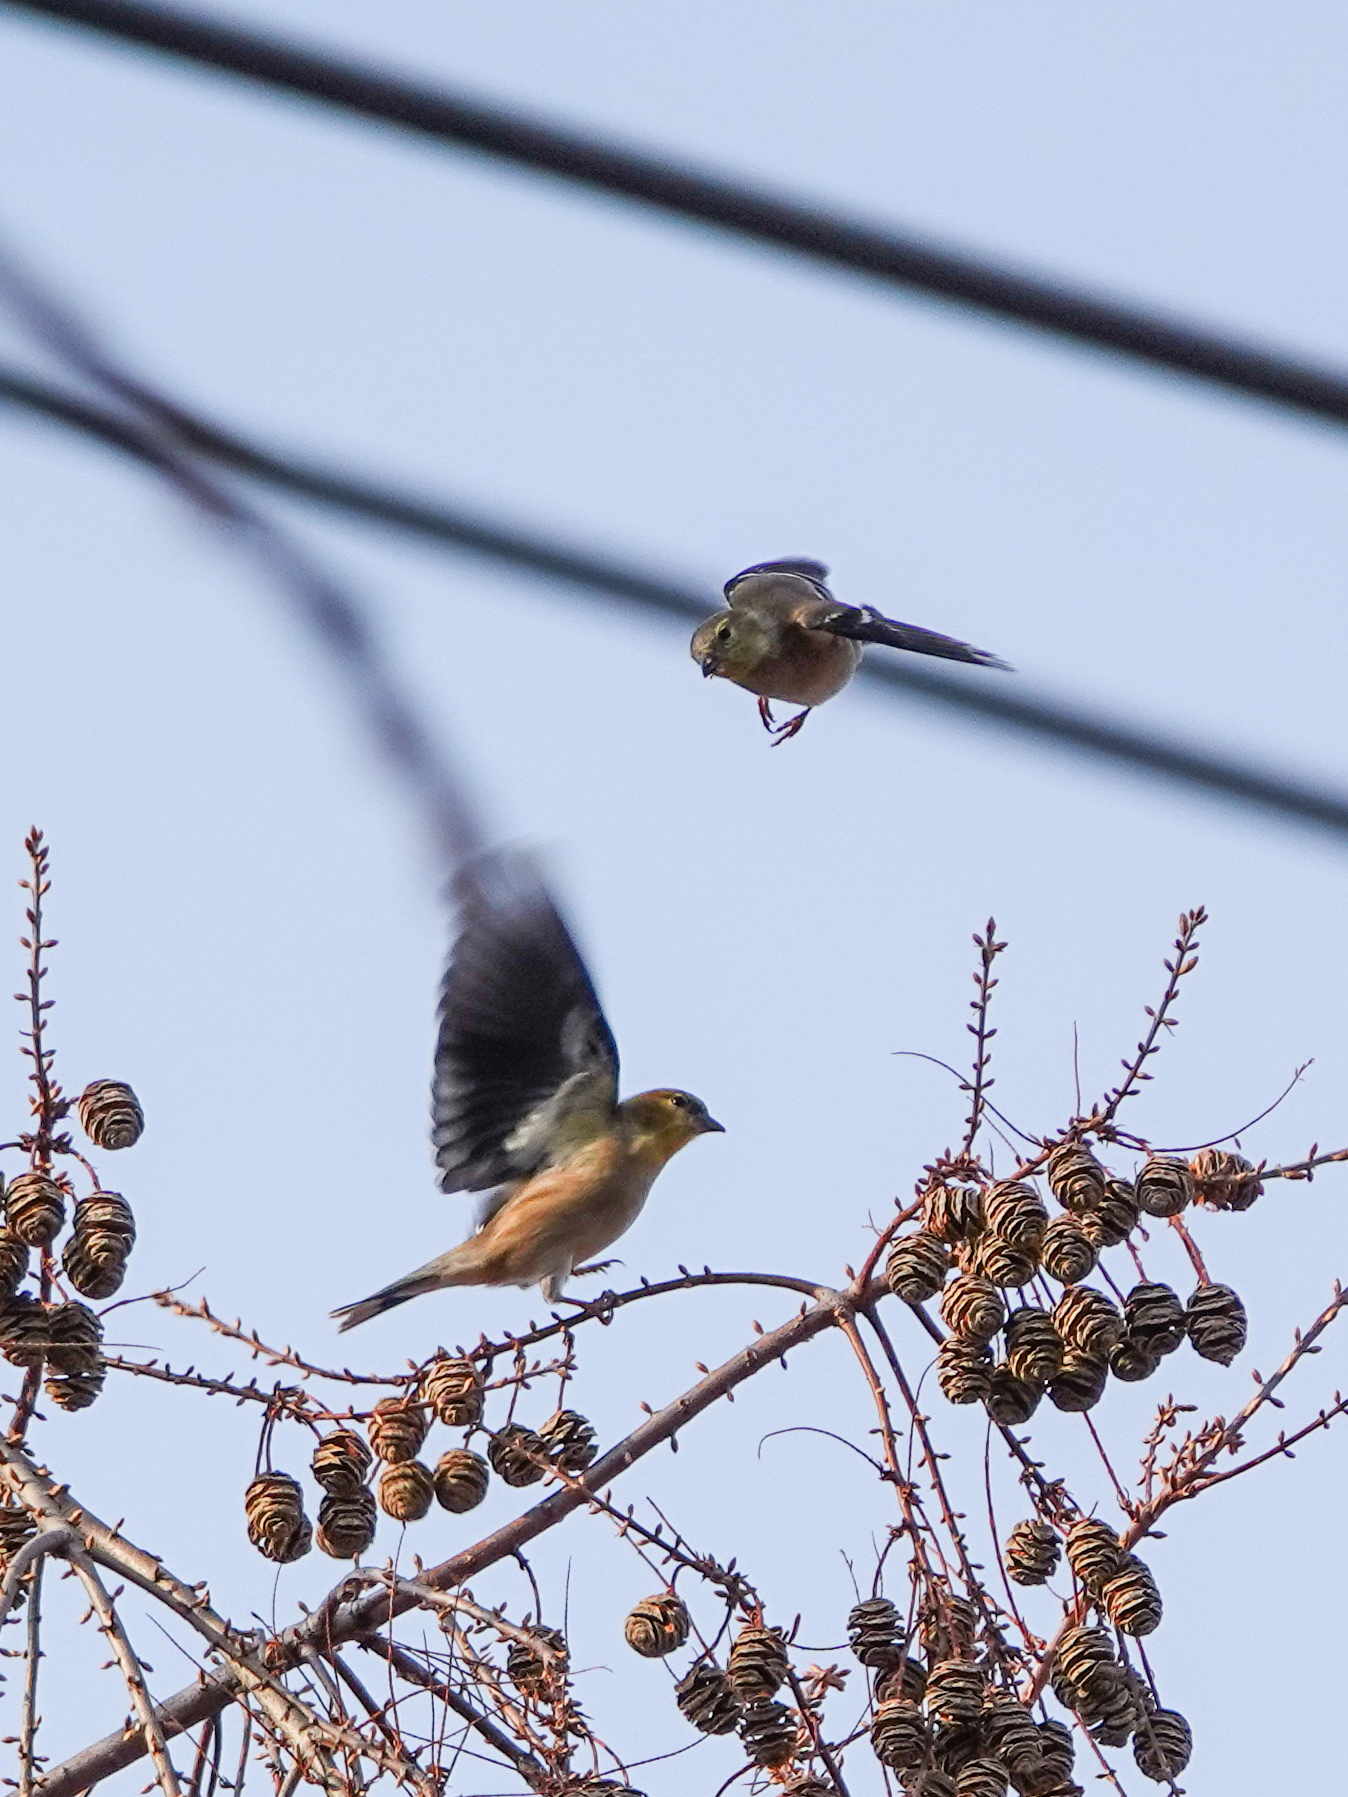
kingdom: Animalia
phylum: Chordata
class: Aves
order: Passeriformes
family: Fringillidae
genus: Spinus
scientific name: Spinus tristis
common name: American goldfinch
